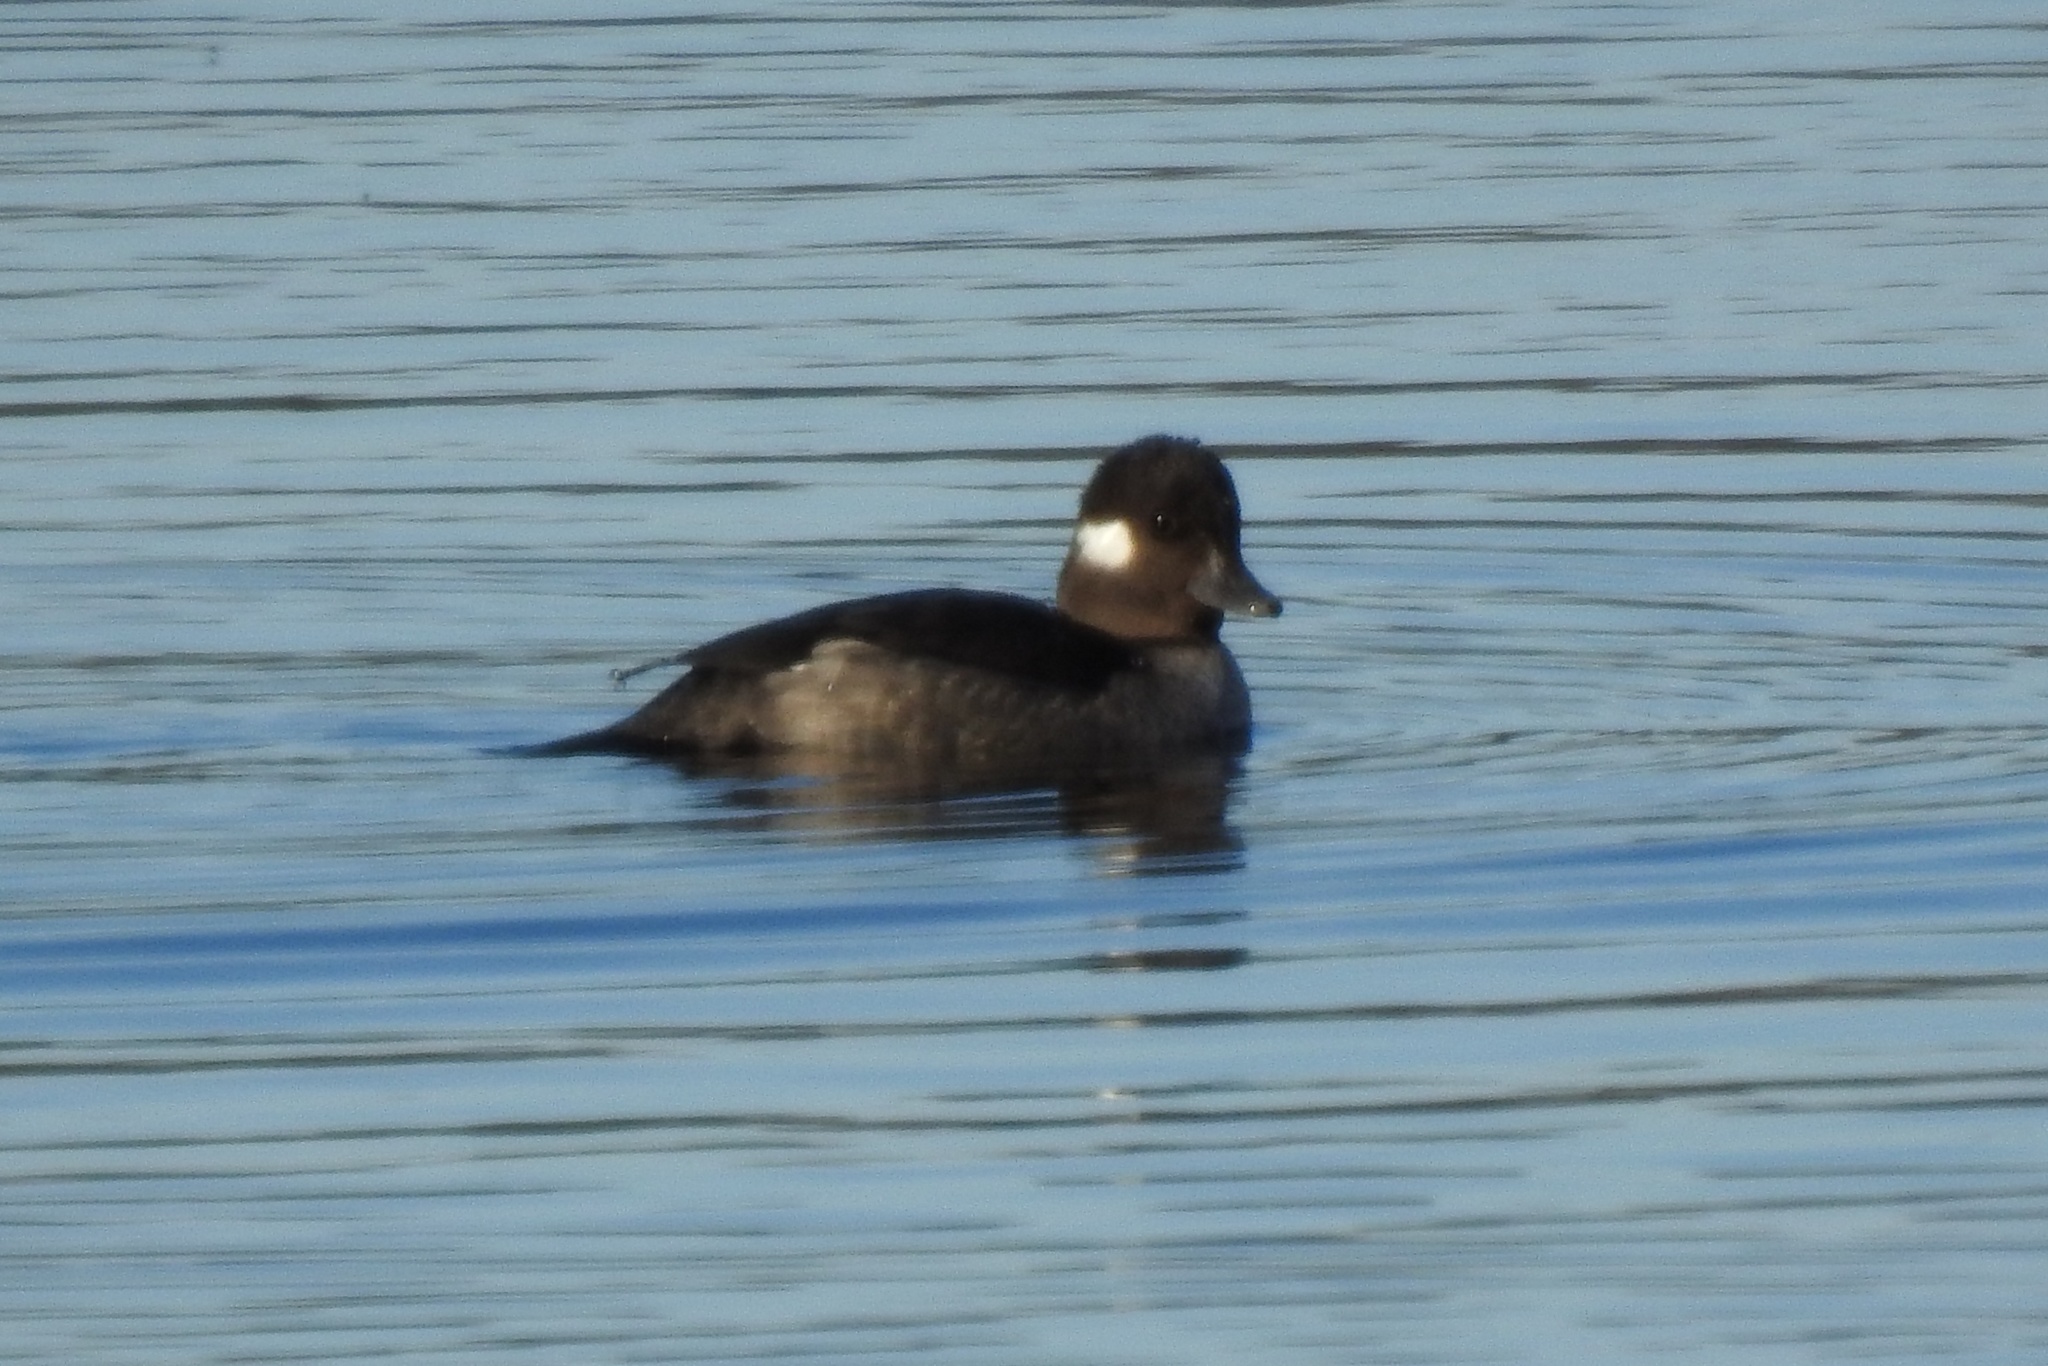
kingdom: Animalia
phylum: Chordata
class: Aves
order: Anseriformes
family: Anatidae
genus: Bucephala
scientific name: Bucephala albeola
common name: Bufflehead
